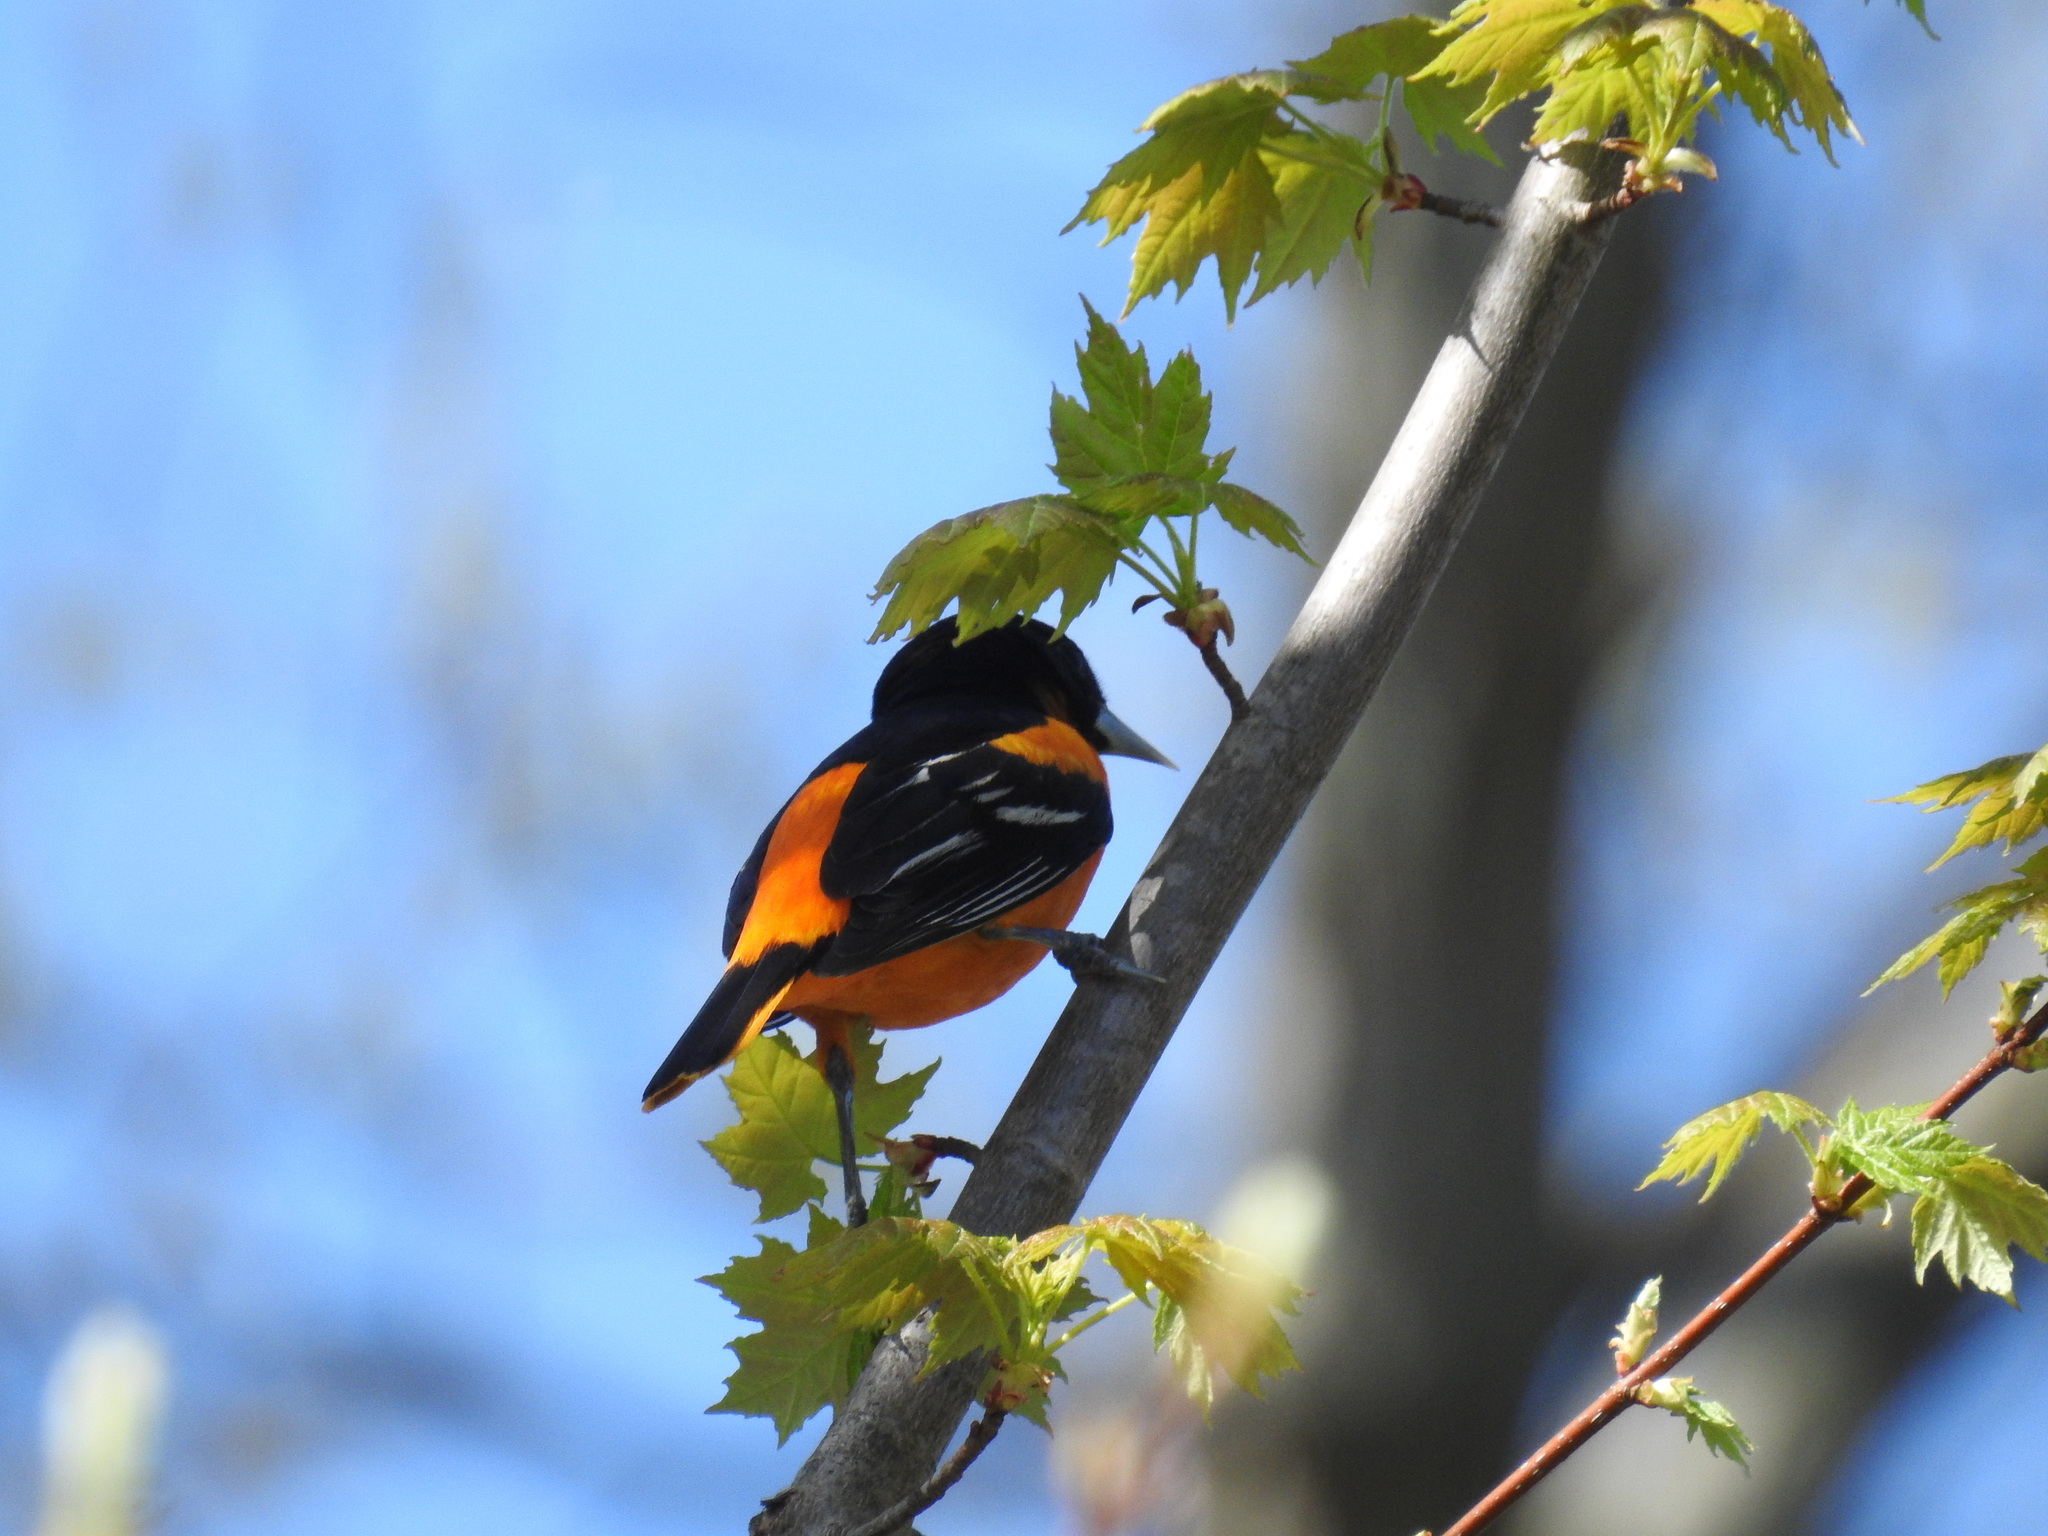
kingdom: Animalia
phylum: Chordata
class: Aves
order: Passeriformes
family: Icteridae
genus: Icterus
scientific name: Icterus galbula
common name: Baltimore oriole
